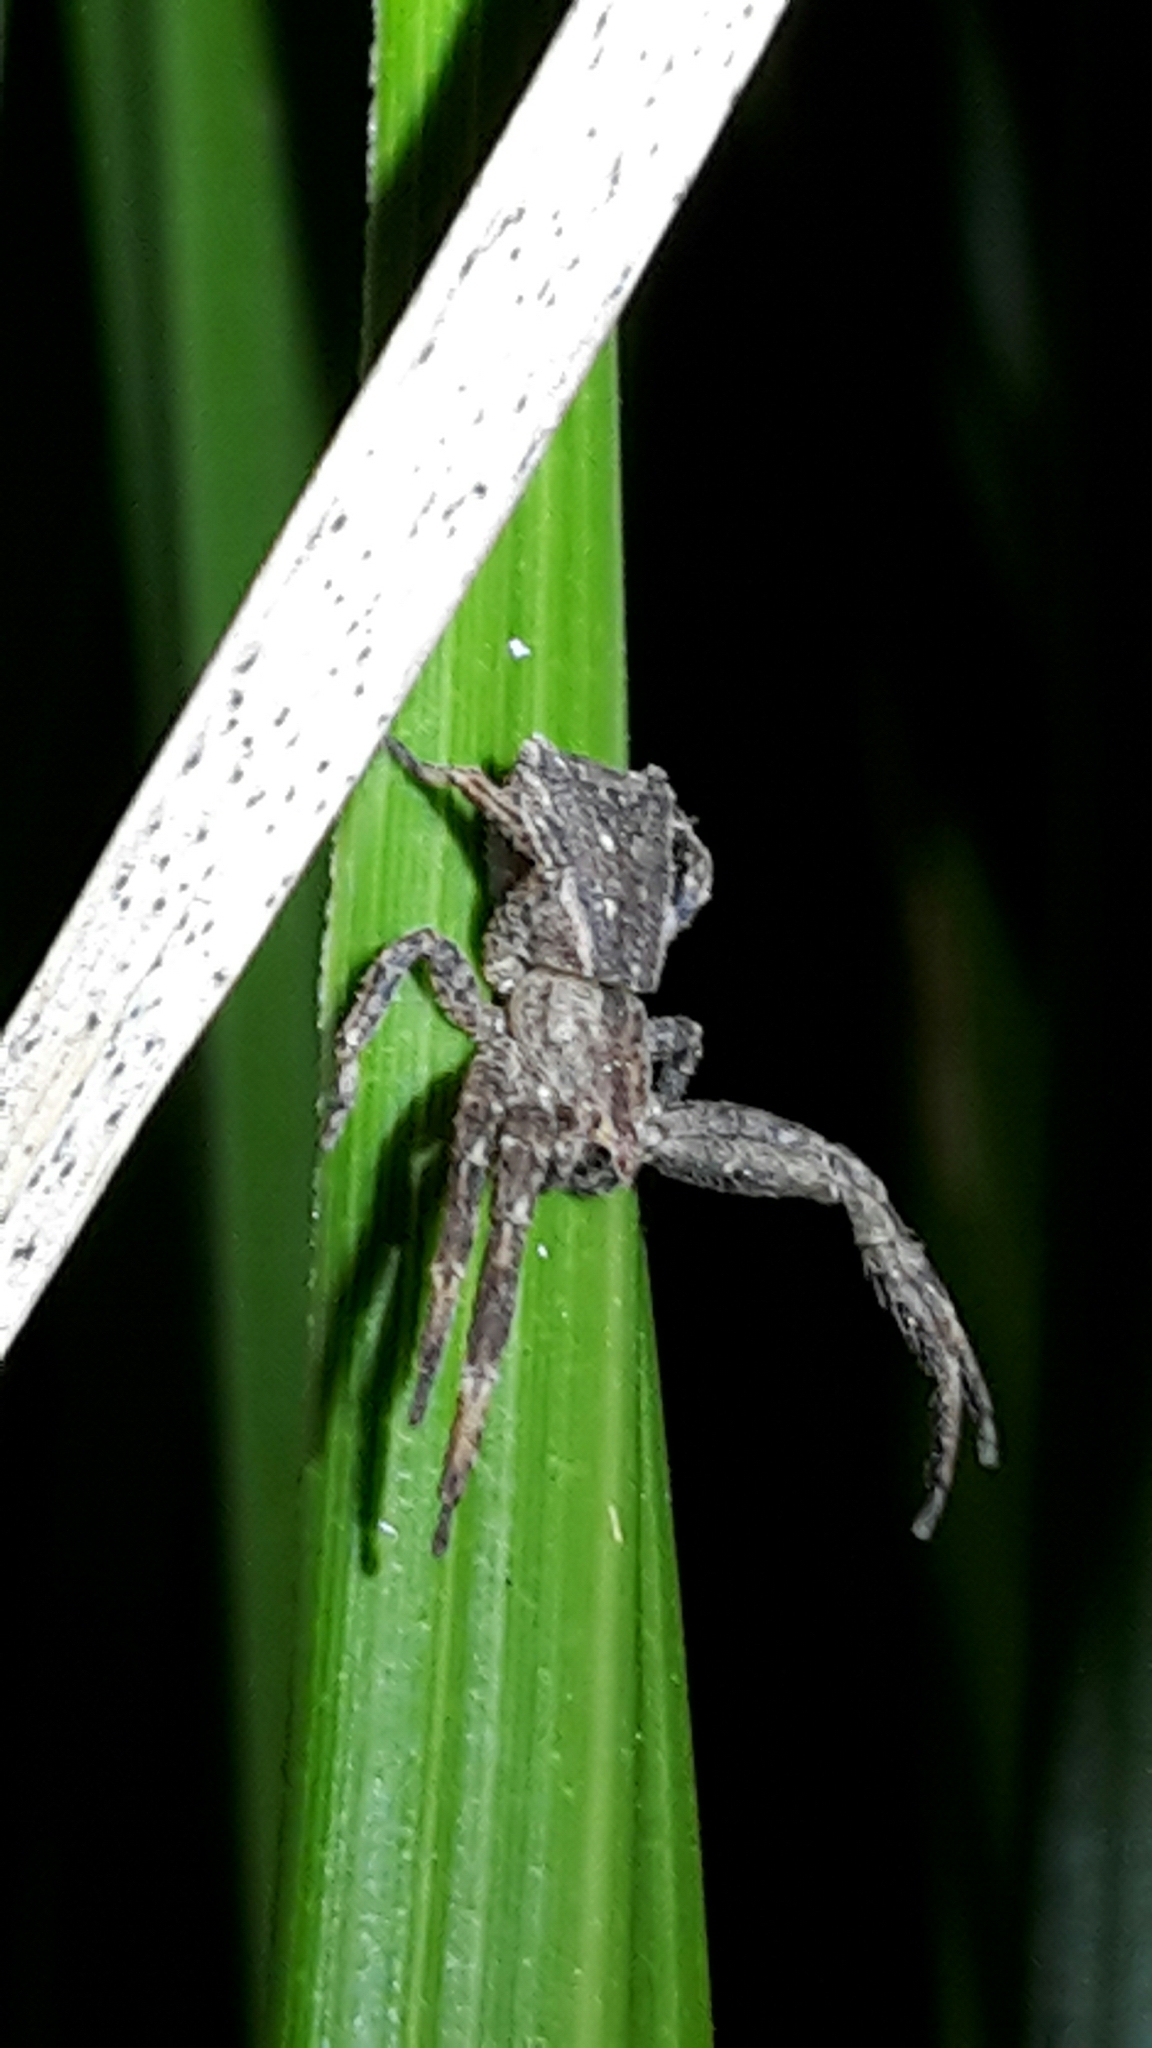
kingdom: Animalia
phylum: Arthropoda
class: Arachnida
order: Araneae
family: Thomisidae
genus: Sidymella
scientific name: Sidymella angulata
